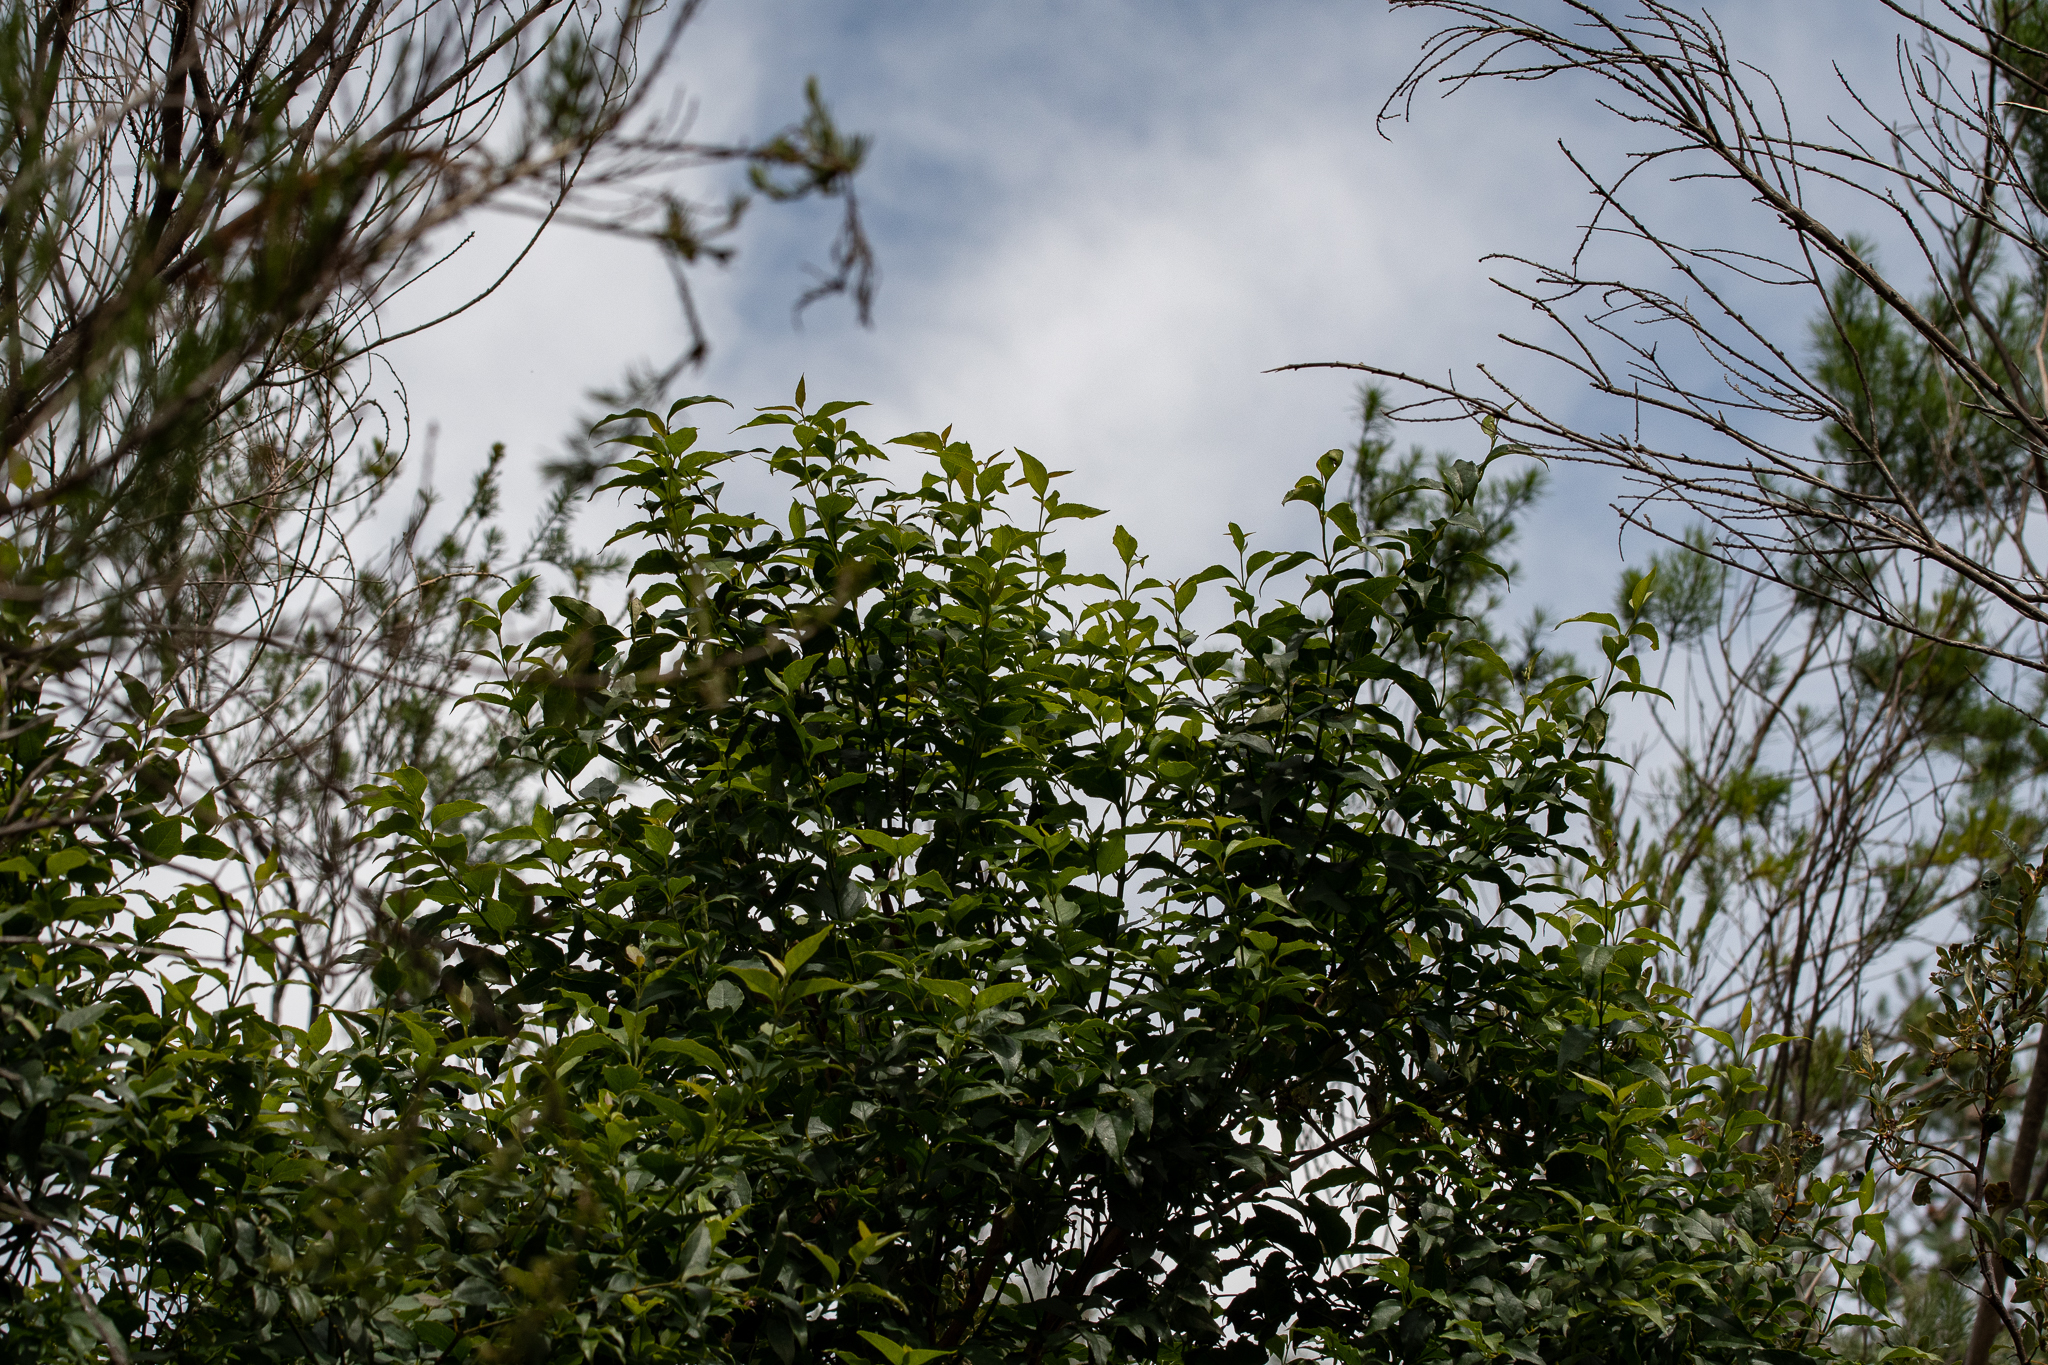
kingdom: Plantae
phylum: Tracheophyta
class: Magnoliopsida
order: Lamiales
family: Stilbaceae
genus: Halleria
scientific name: Halleria lucida
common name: Tree fuschia
